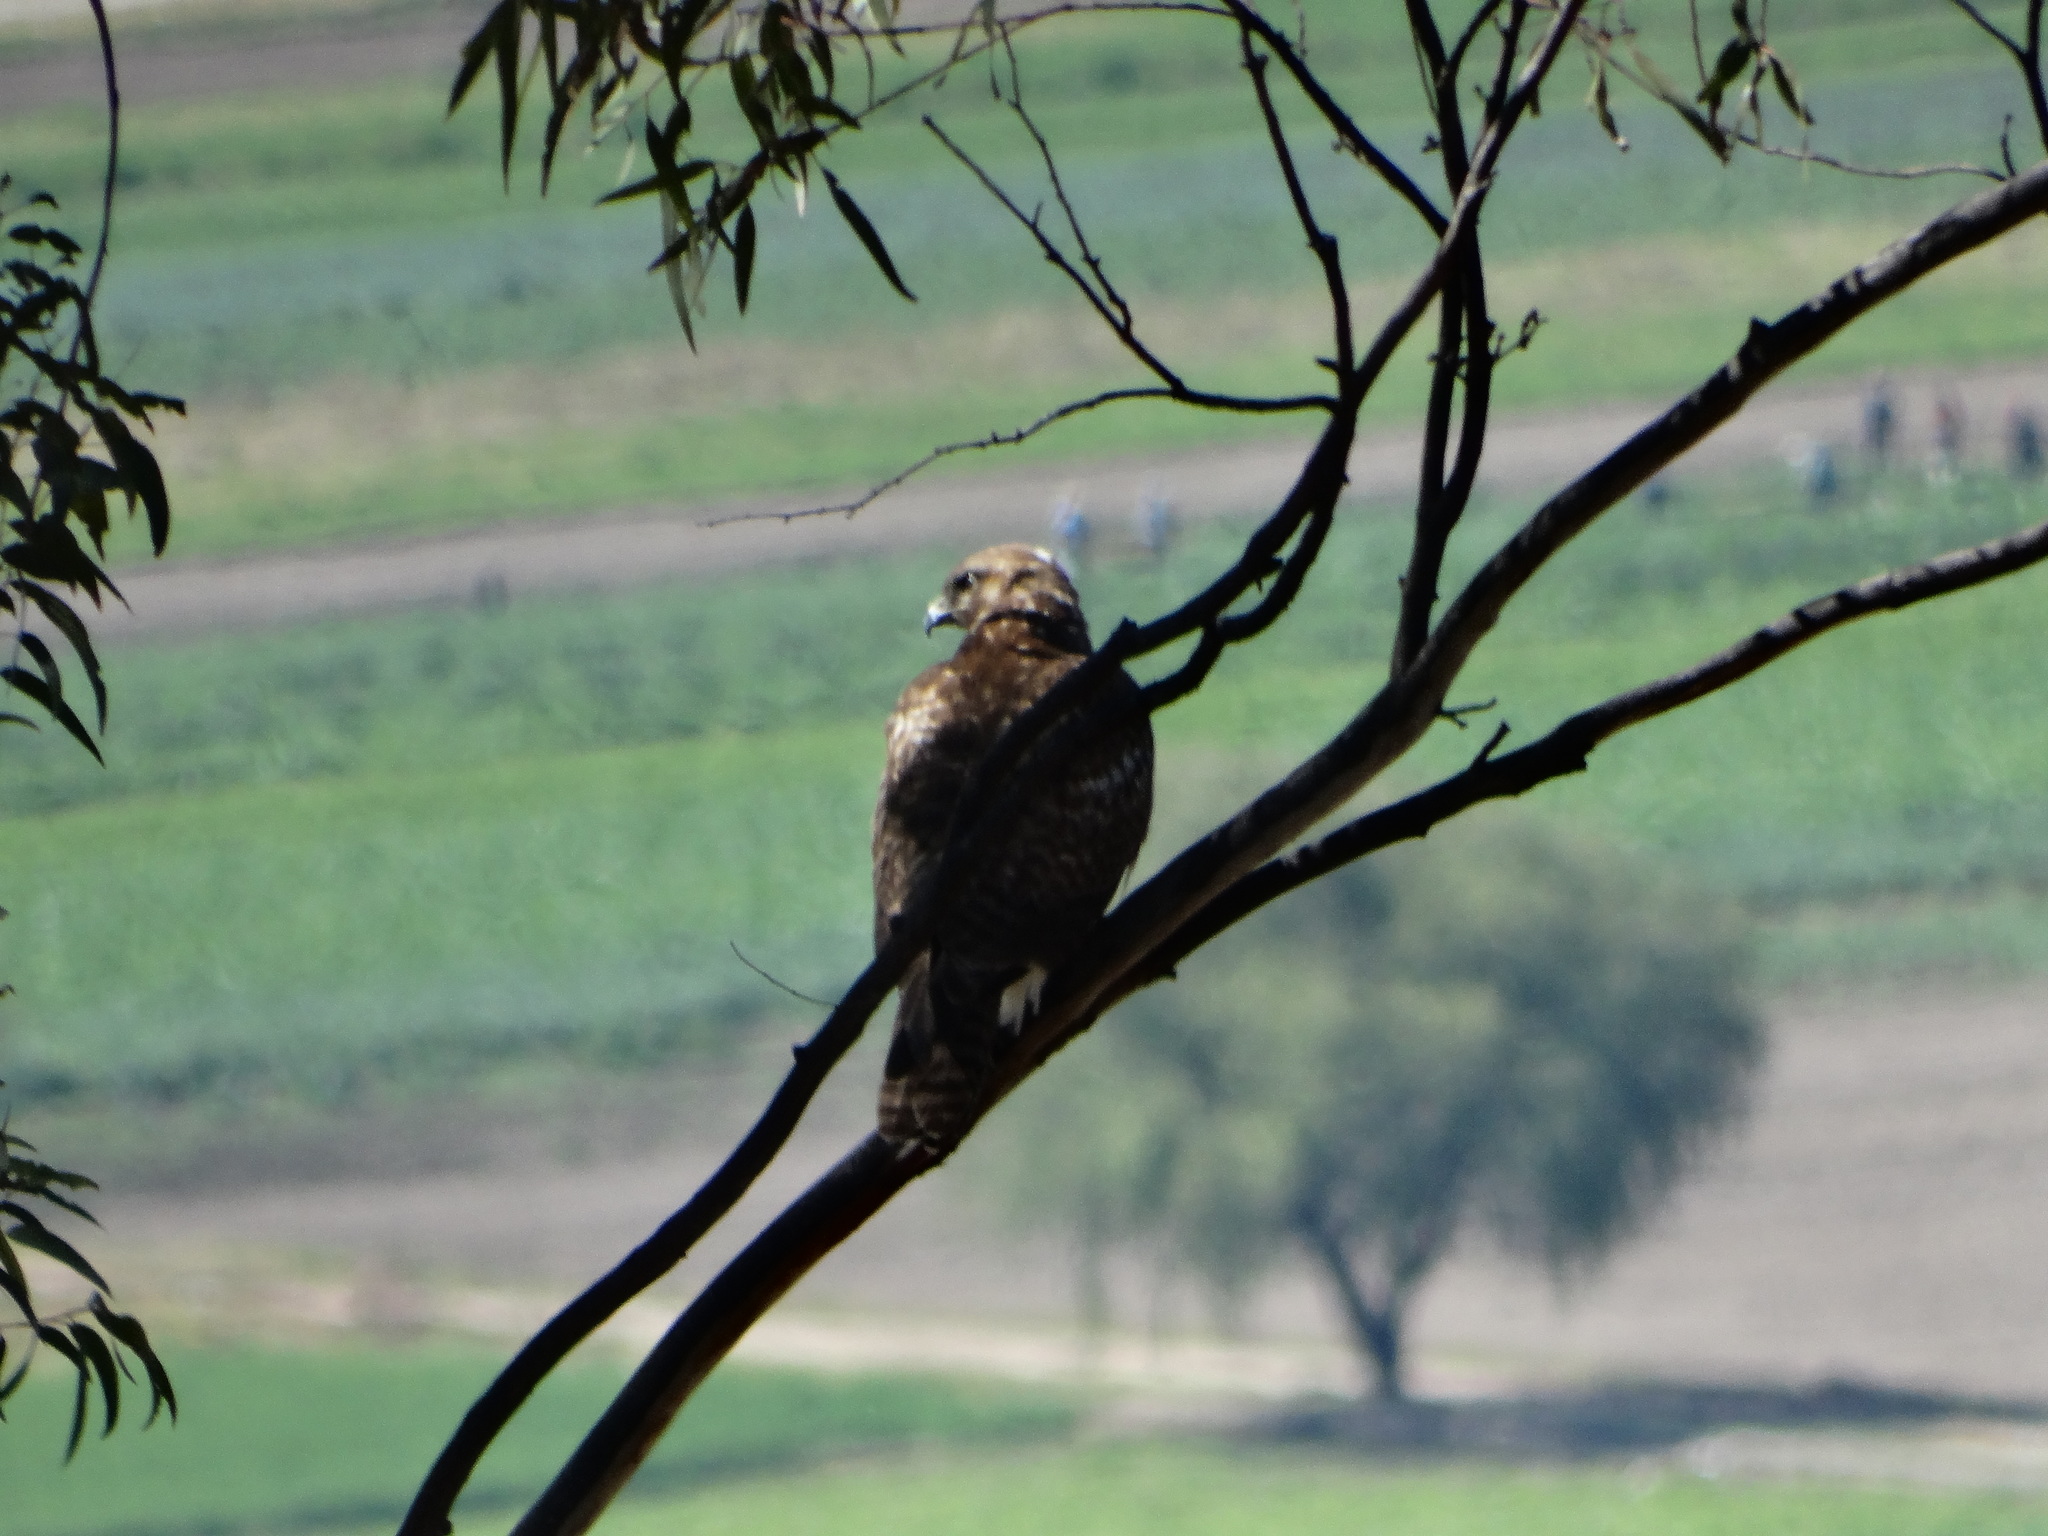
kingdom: Animalia
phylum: Chordata
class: Aves
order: Accipitriformes
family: Accipitridae
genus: Buteo
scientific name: Buteo jamaicensis
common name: Red-tailed hawk
